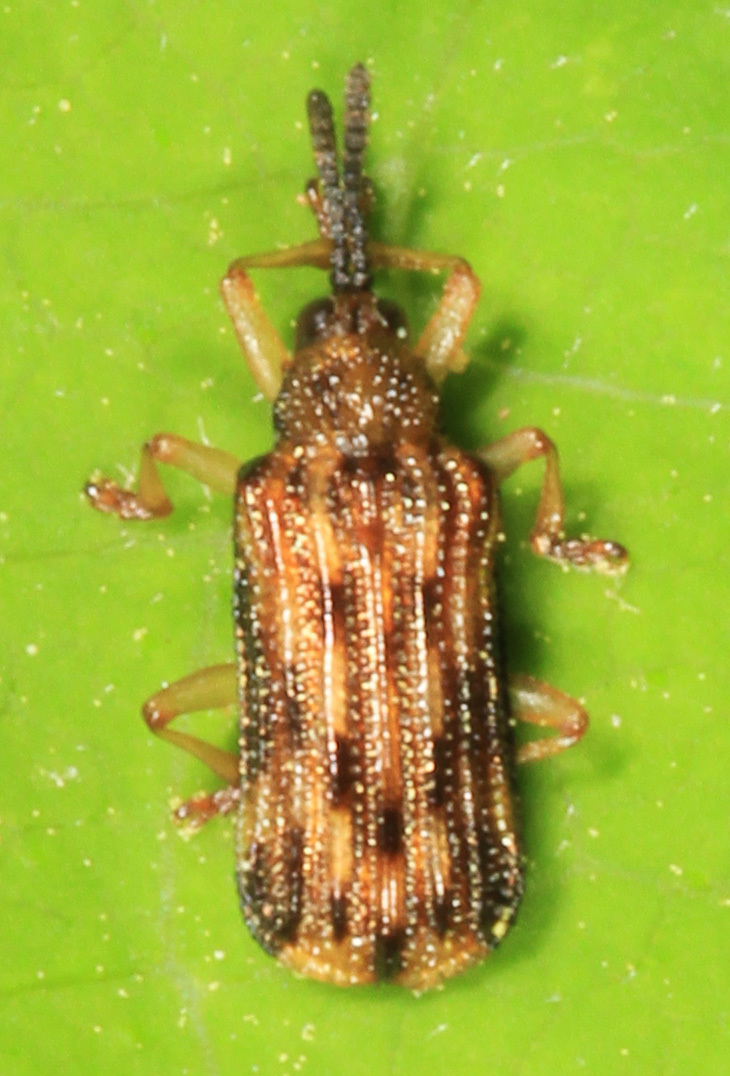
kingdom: Animalia
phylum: Arthropoda
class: Insecta
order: Coleoptera
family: Chrysomelidae
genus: Sumitrosis
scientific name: Sumitrosis inaequalis
